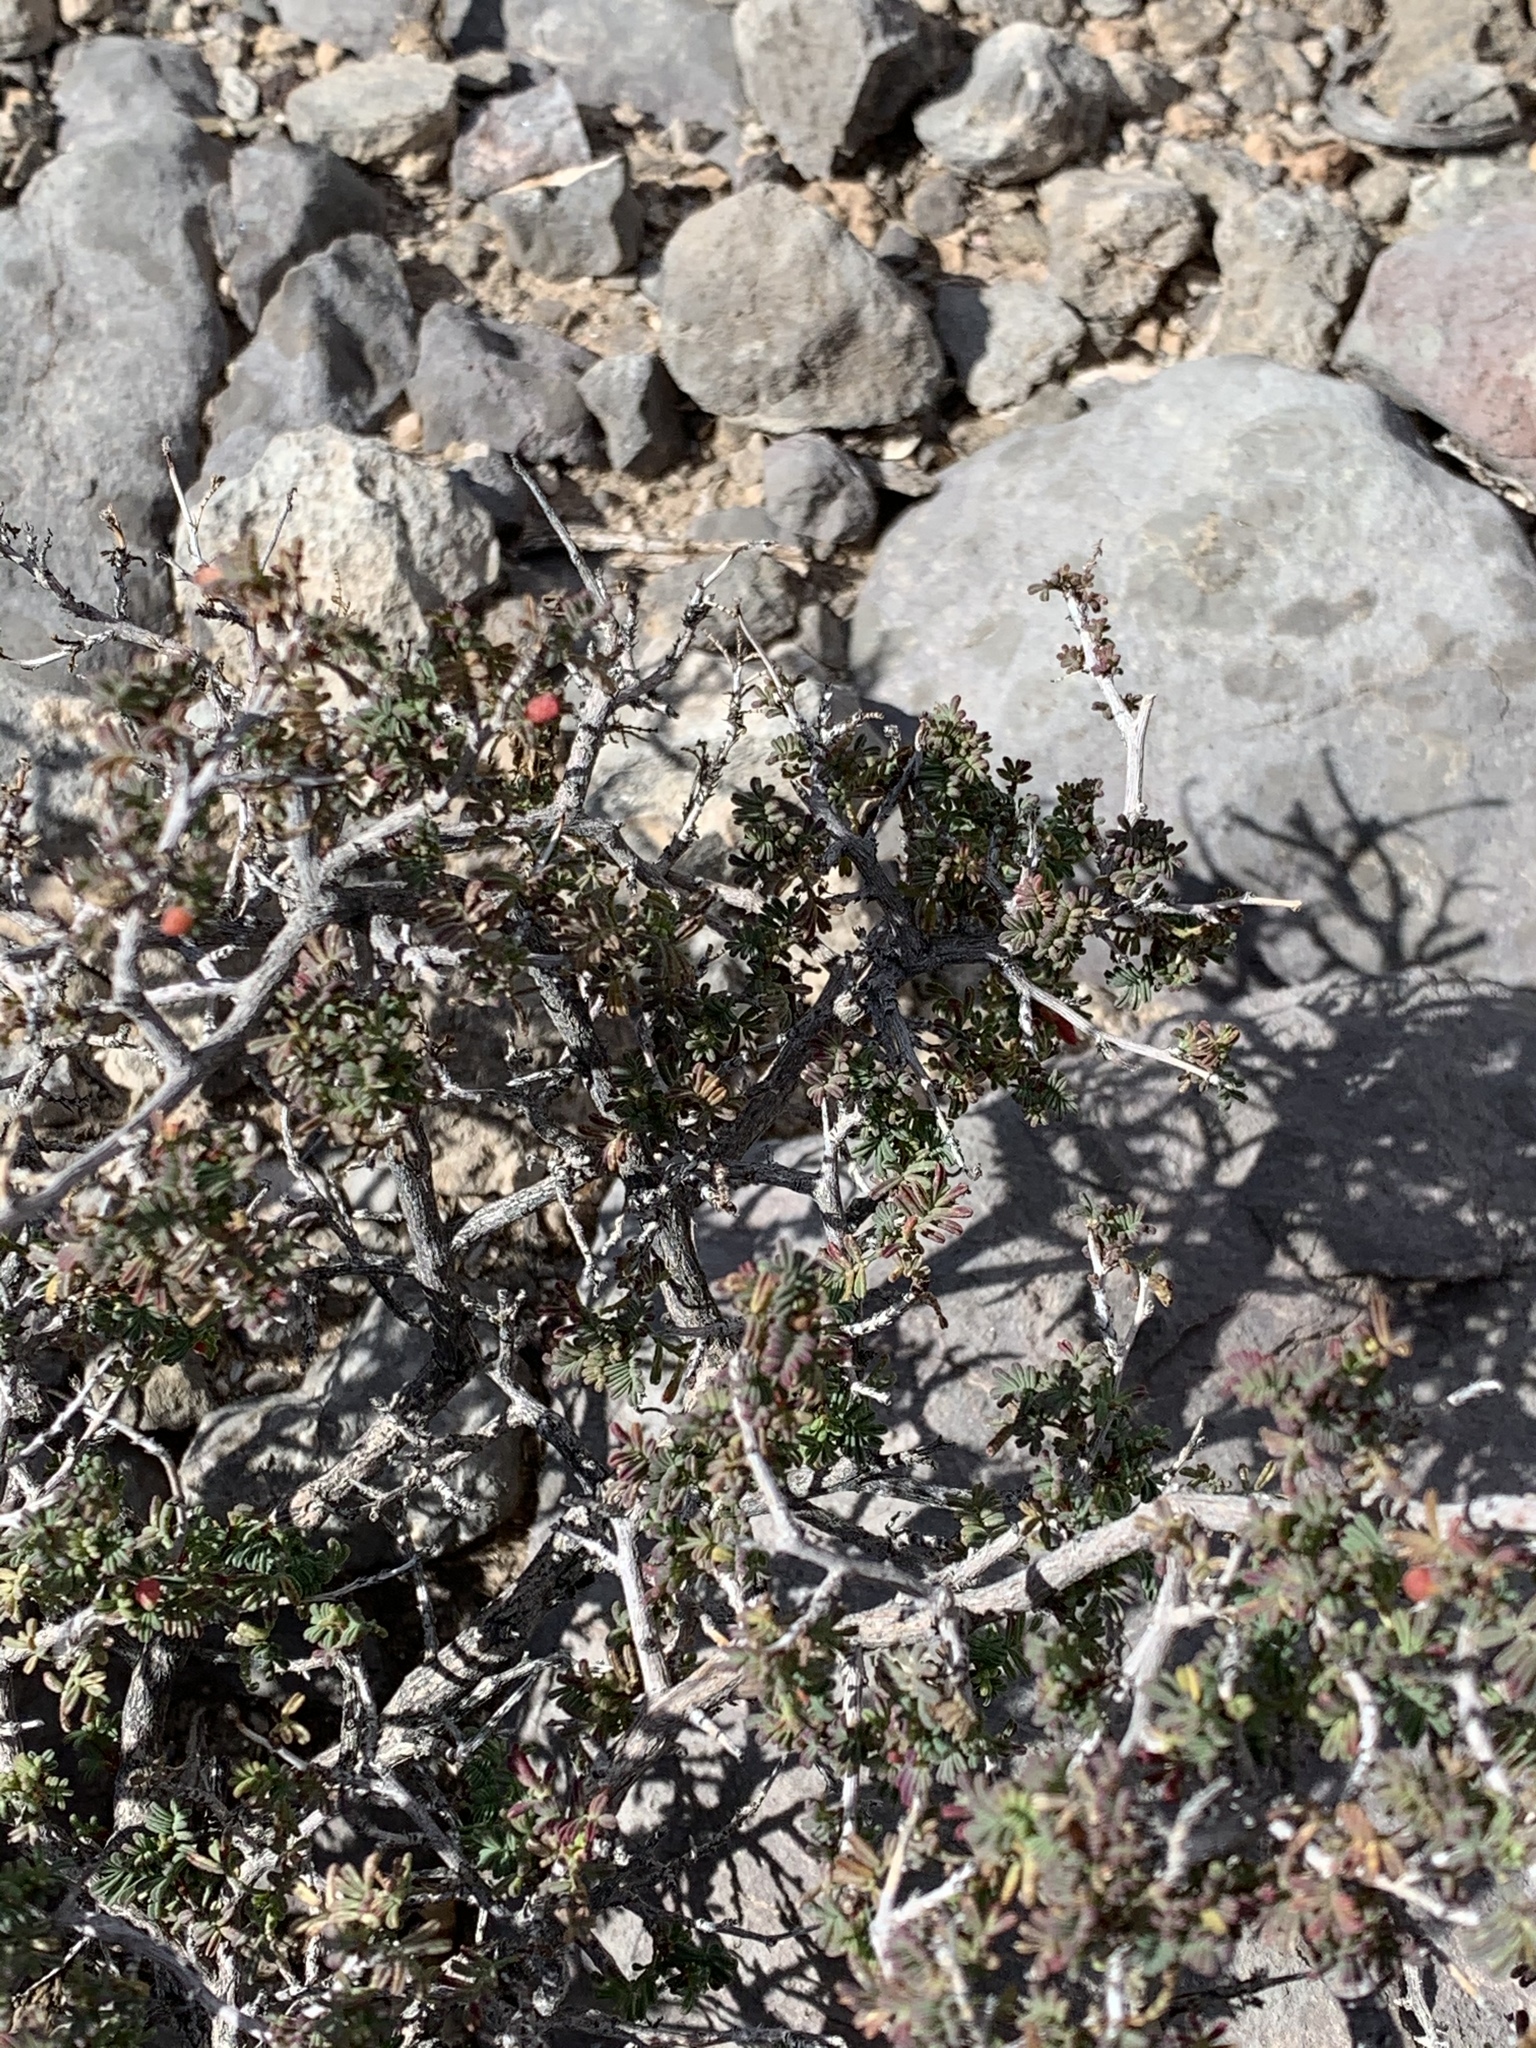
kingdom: Plantae
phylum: Tracheophyta
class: Magnoliopsida
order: Sapindales
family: Anacardiaceae
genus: Rhus
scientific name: Rhus microphylla
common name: Desert sumac
